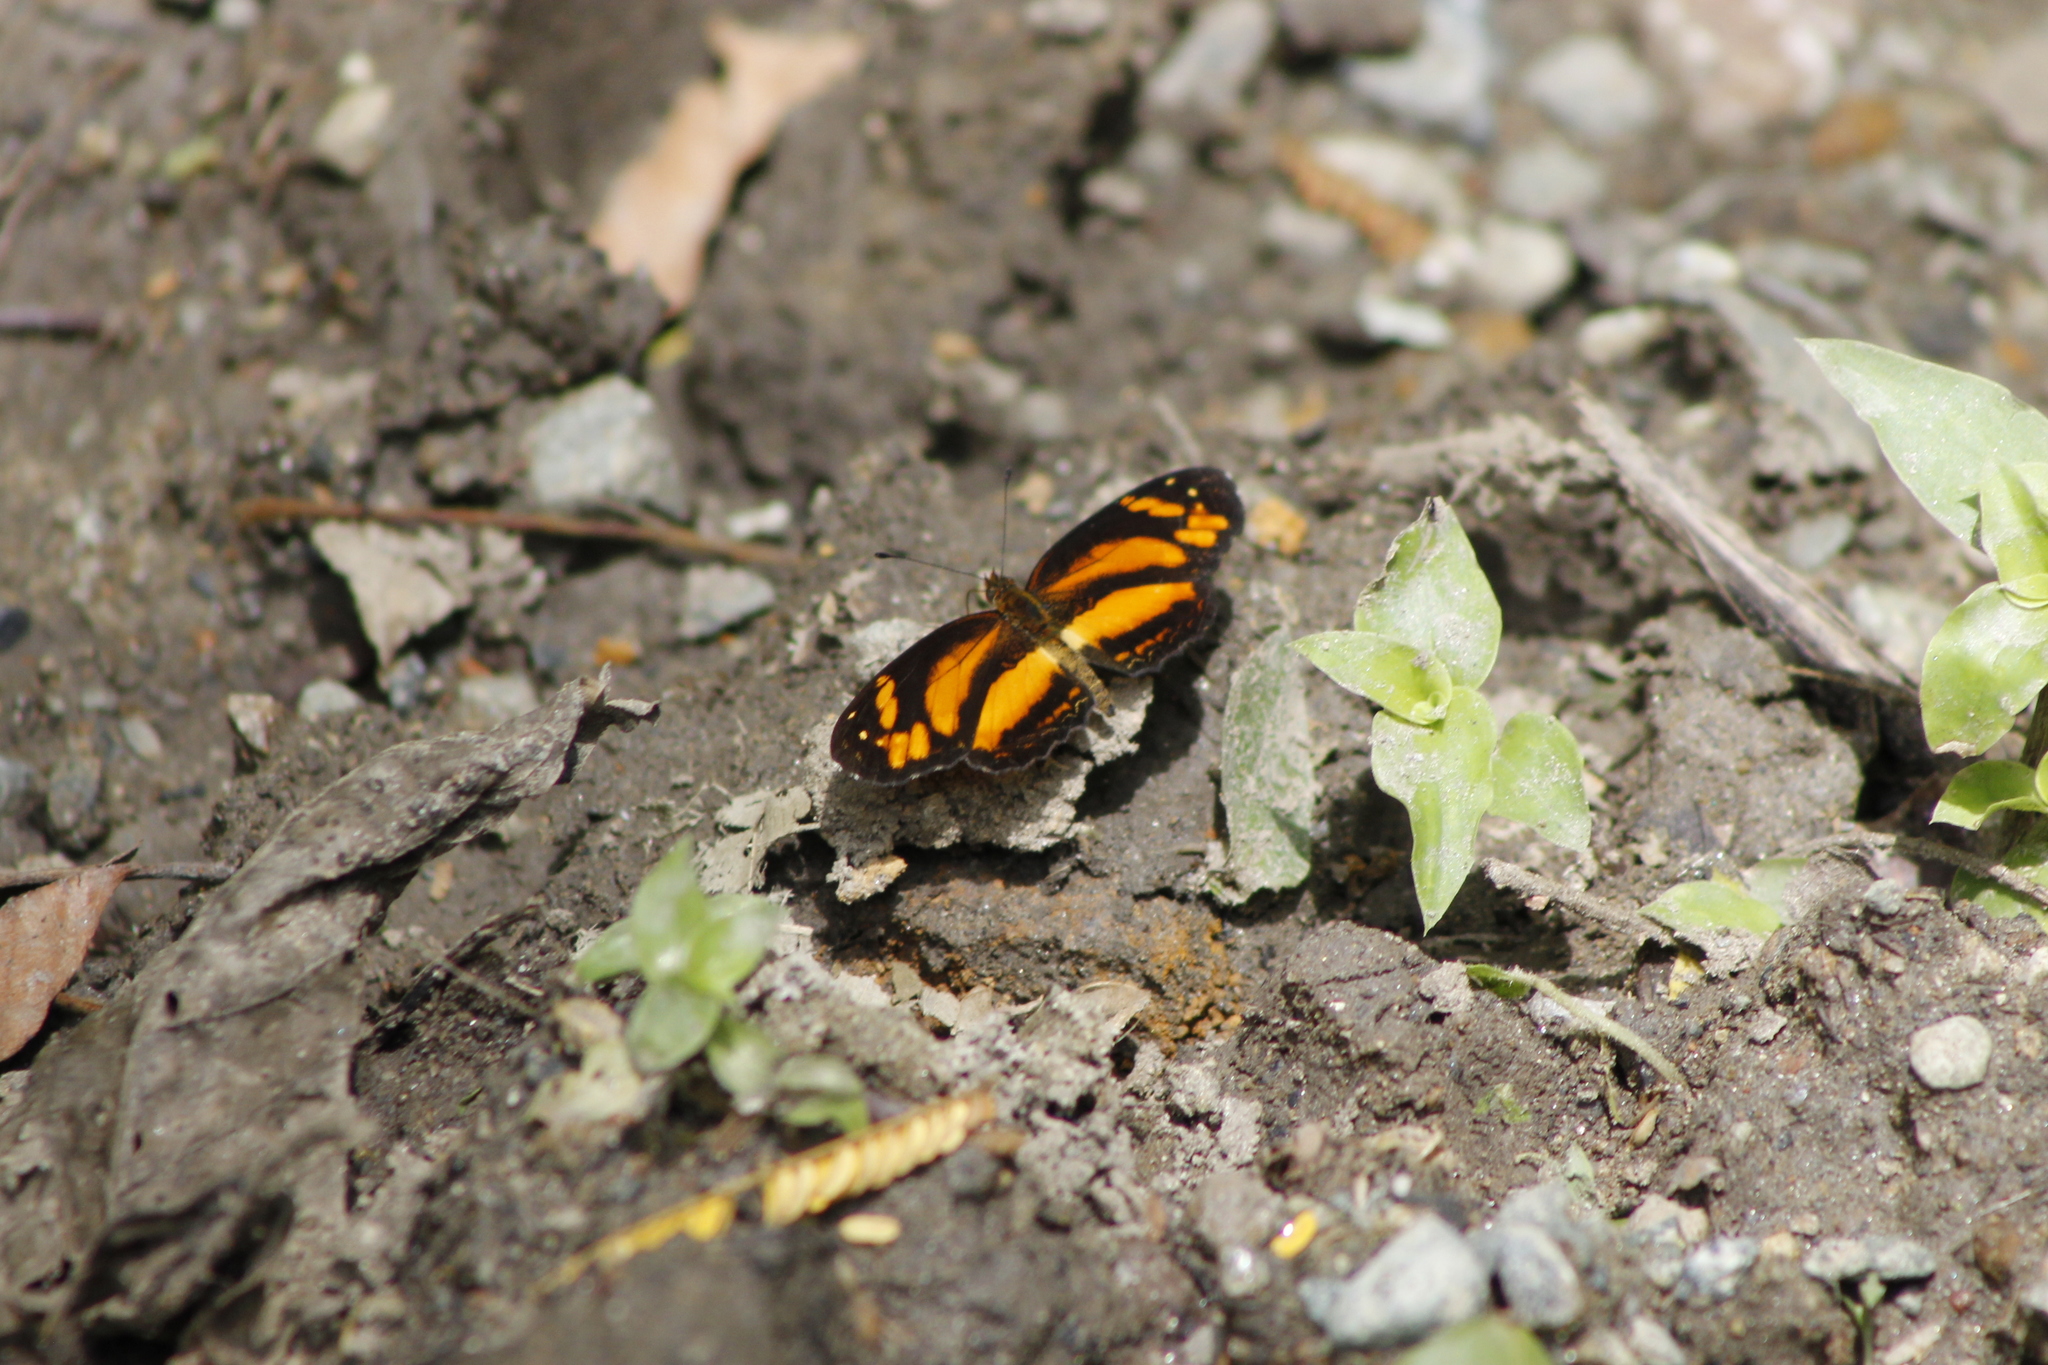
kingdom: Animalia
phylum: Arthropoda
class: Insecta
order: Lepidoptera
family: Nymphalidae
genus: Castilia
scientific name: Castilia eranites
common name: Smudged crescent
